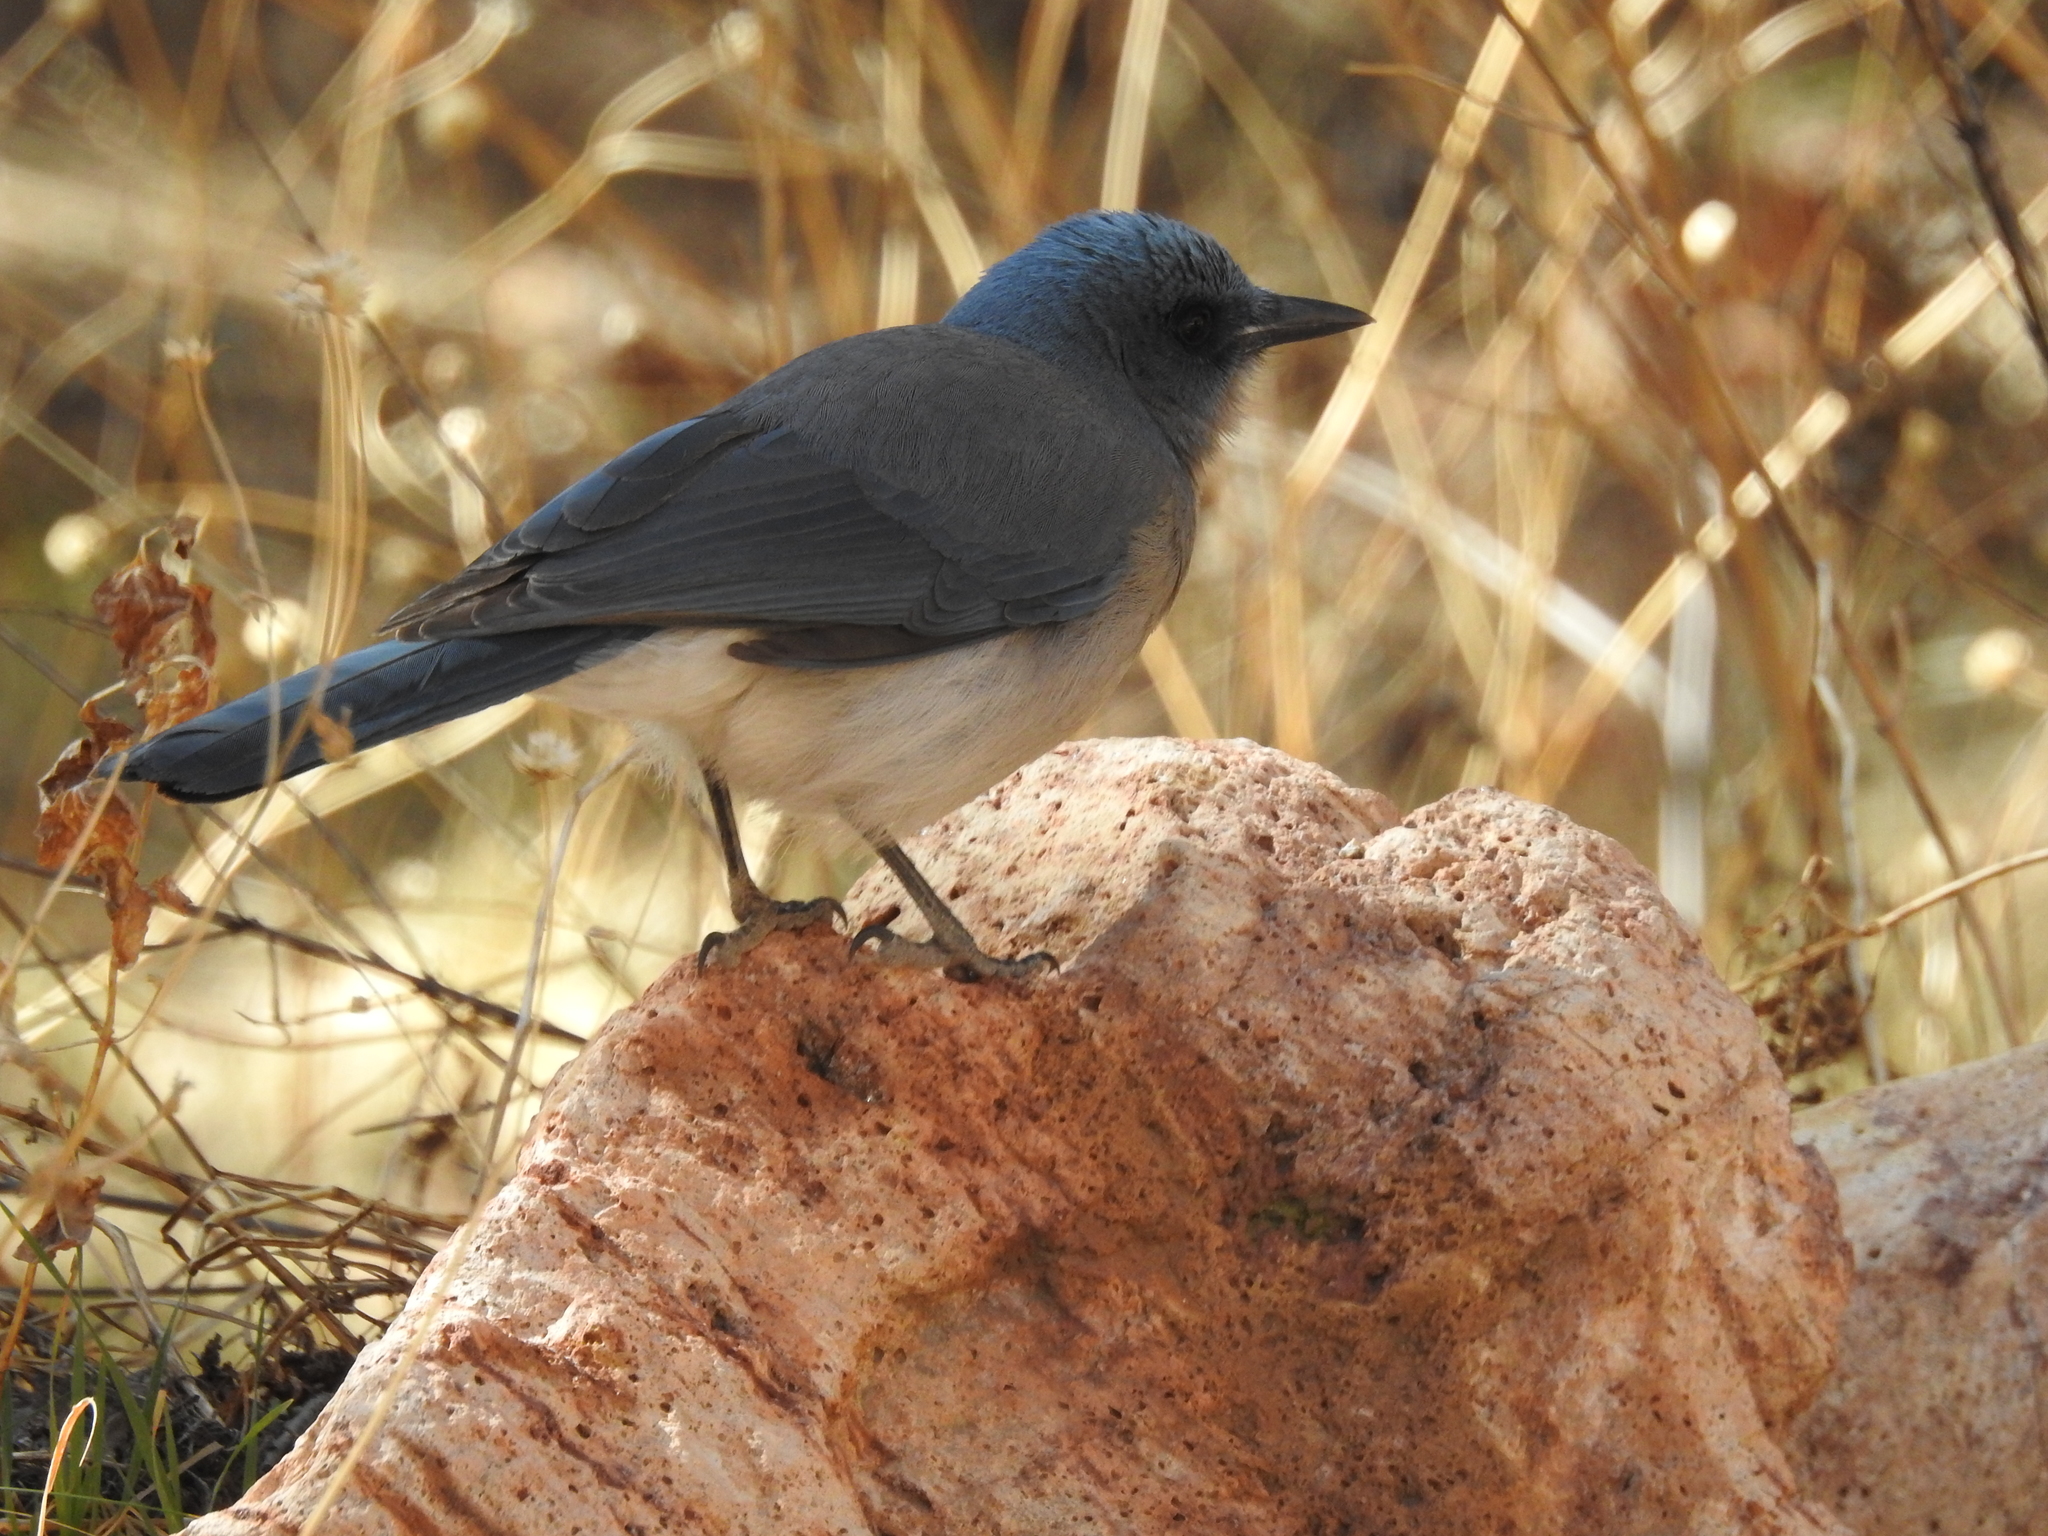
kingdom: Animalia
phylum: Chordata
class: Aves
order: Passeriformes
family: Corvidae
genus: Aphelocoma
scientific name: Aphelocoma wollweberi
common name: Mexican jay
